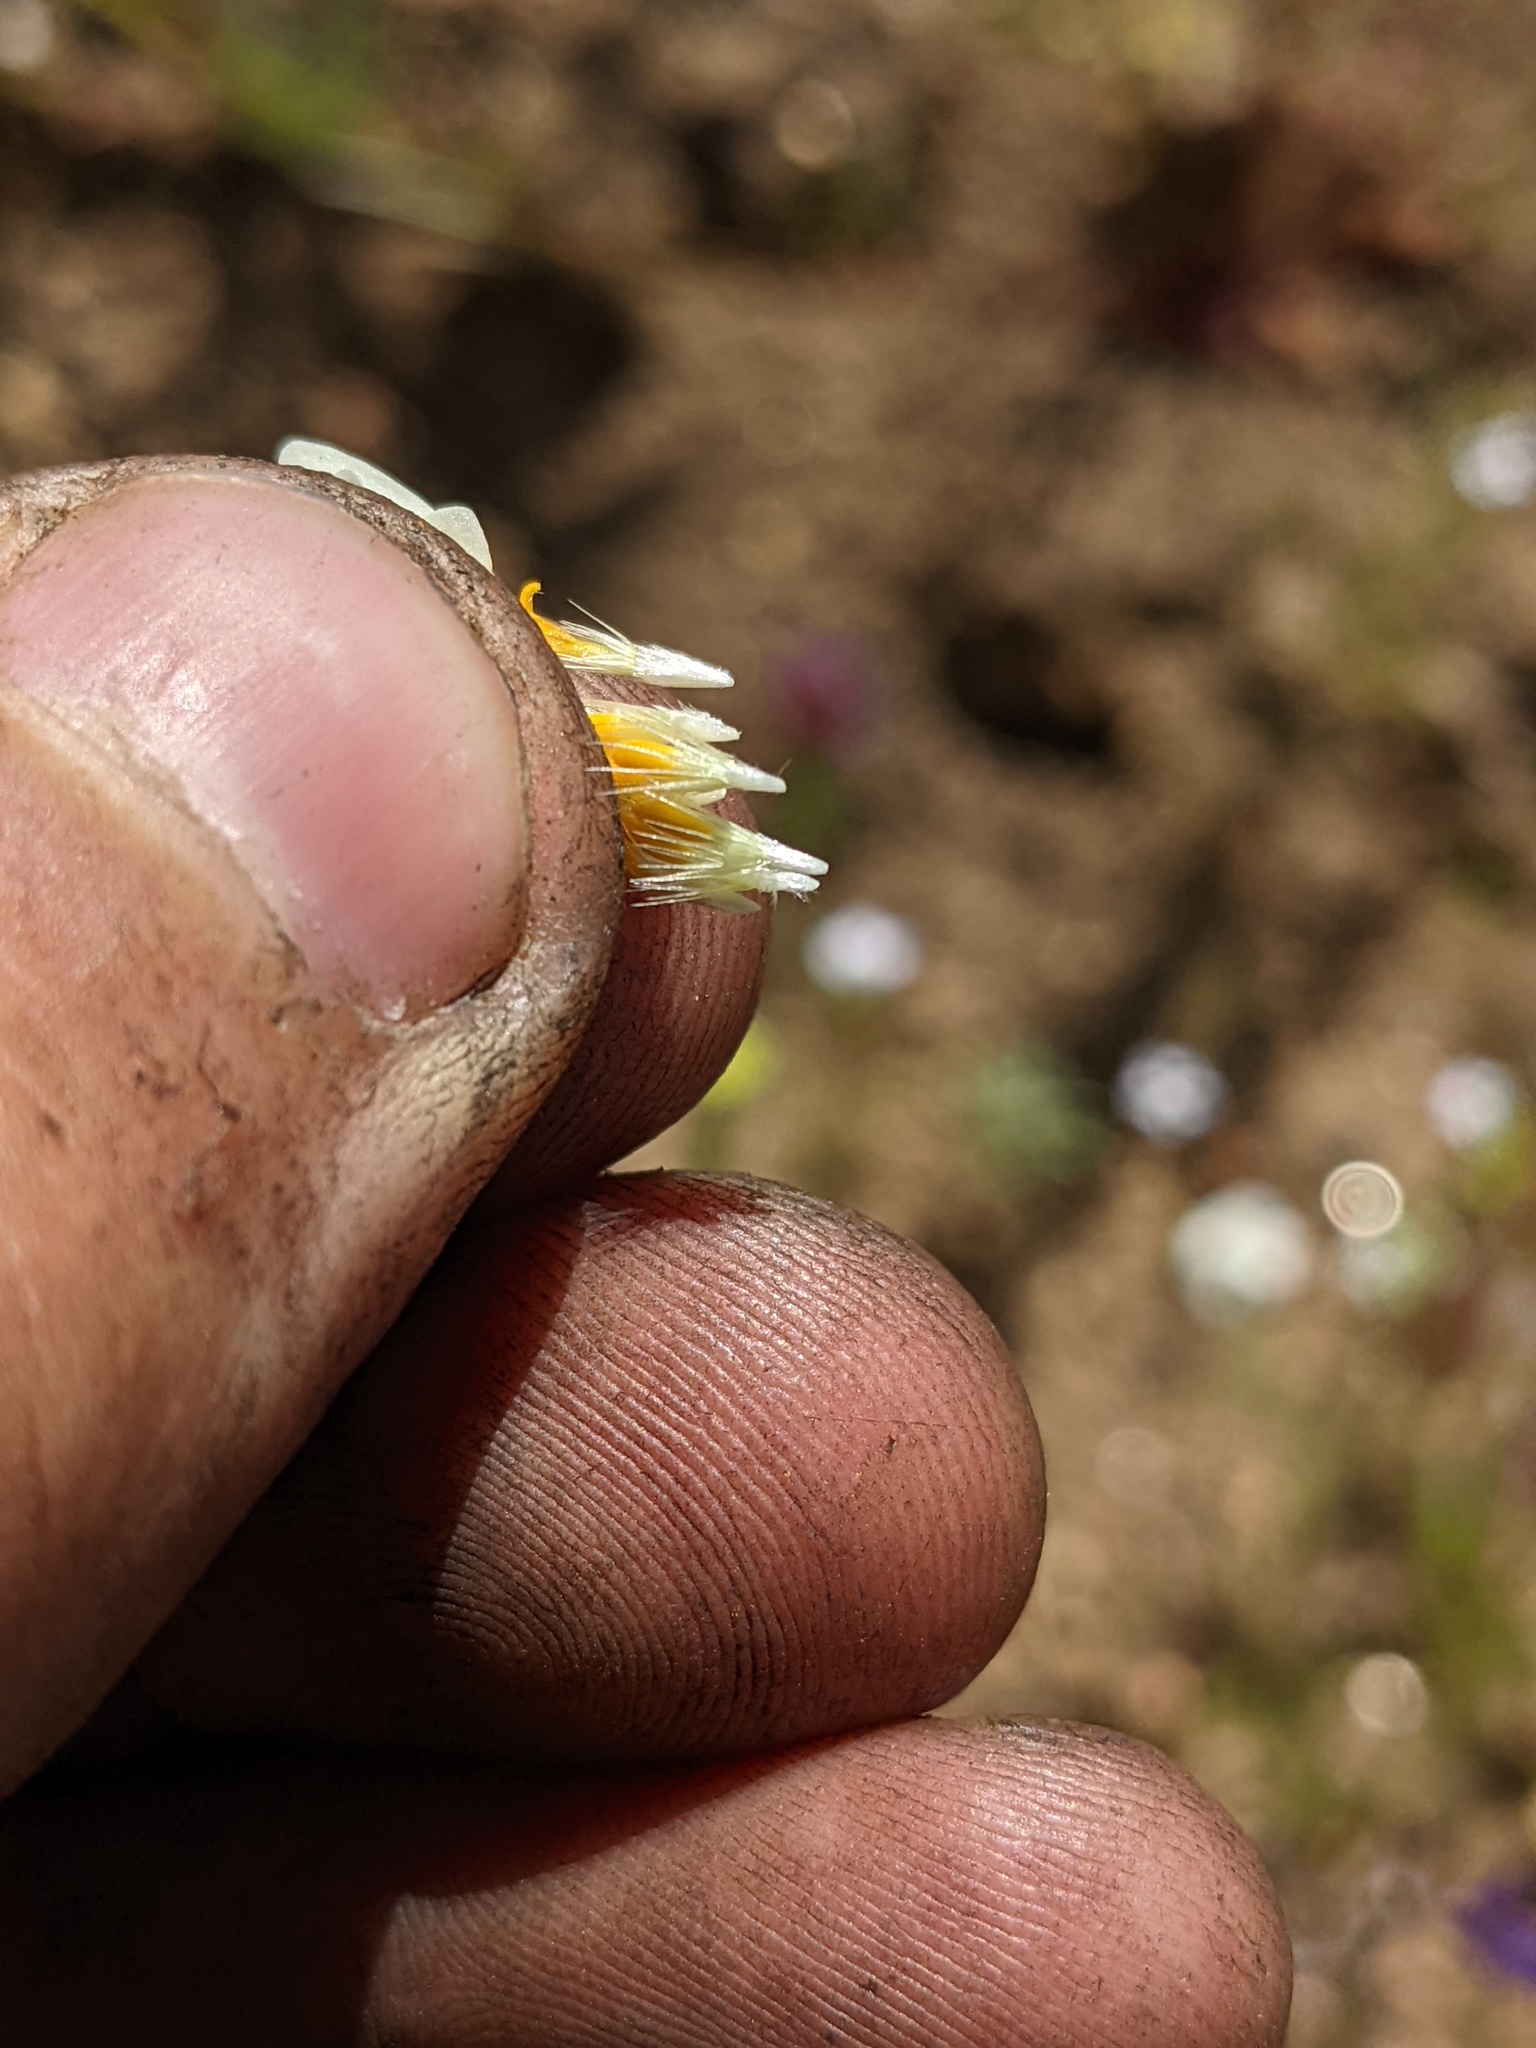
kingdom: Plantae
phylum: Tracheophyta
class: Magnoliopsida
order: Asterales
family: Asteraceae
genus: Layia
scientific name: Layia platyglossa
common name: Tidy-tips
